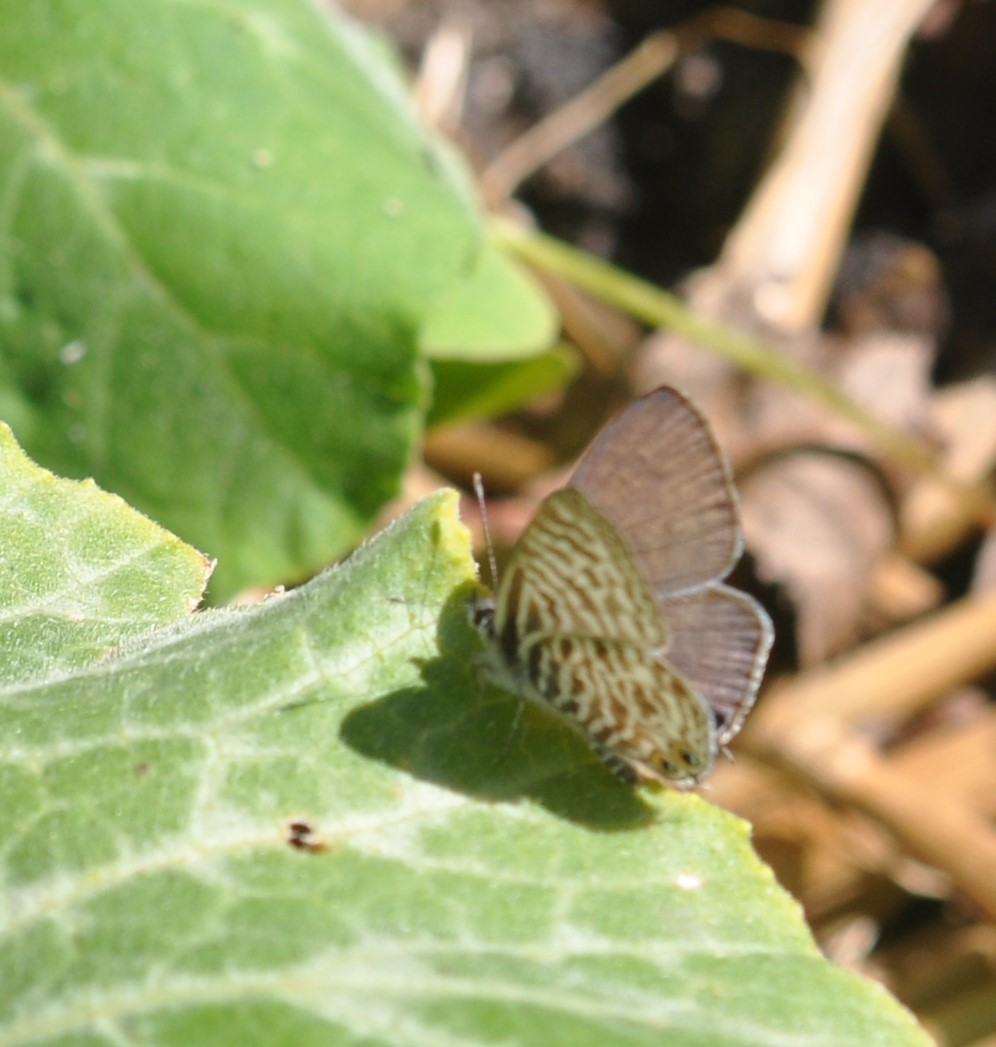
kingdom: Animalia
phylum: Arthropoda
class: Insecta
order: Lepidoptera
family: Lycaenidae
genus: Leptotes
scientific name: Leptotes
